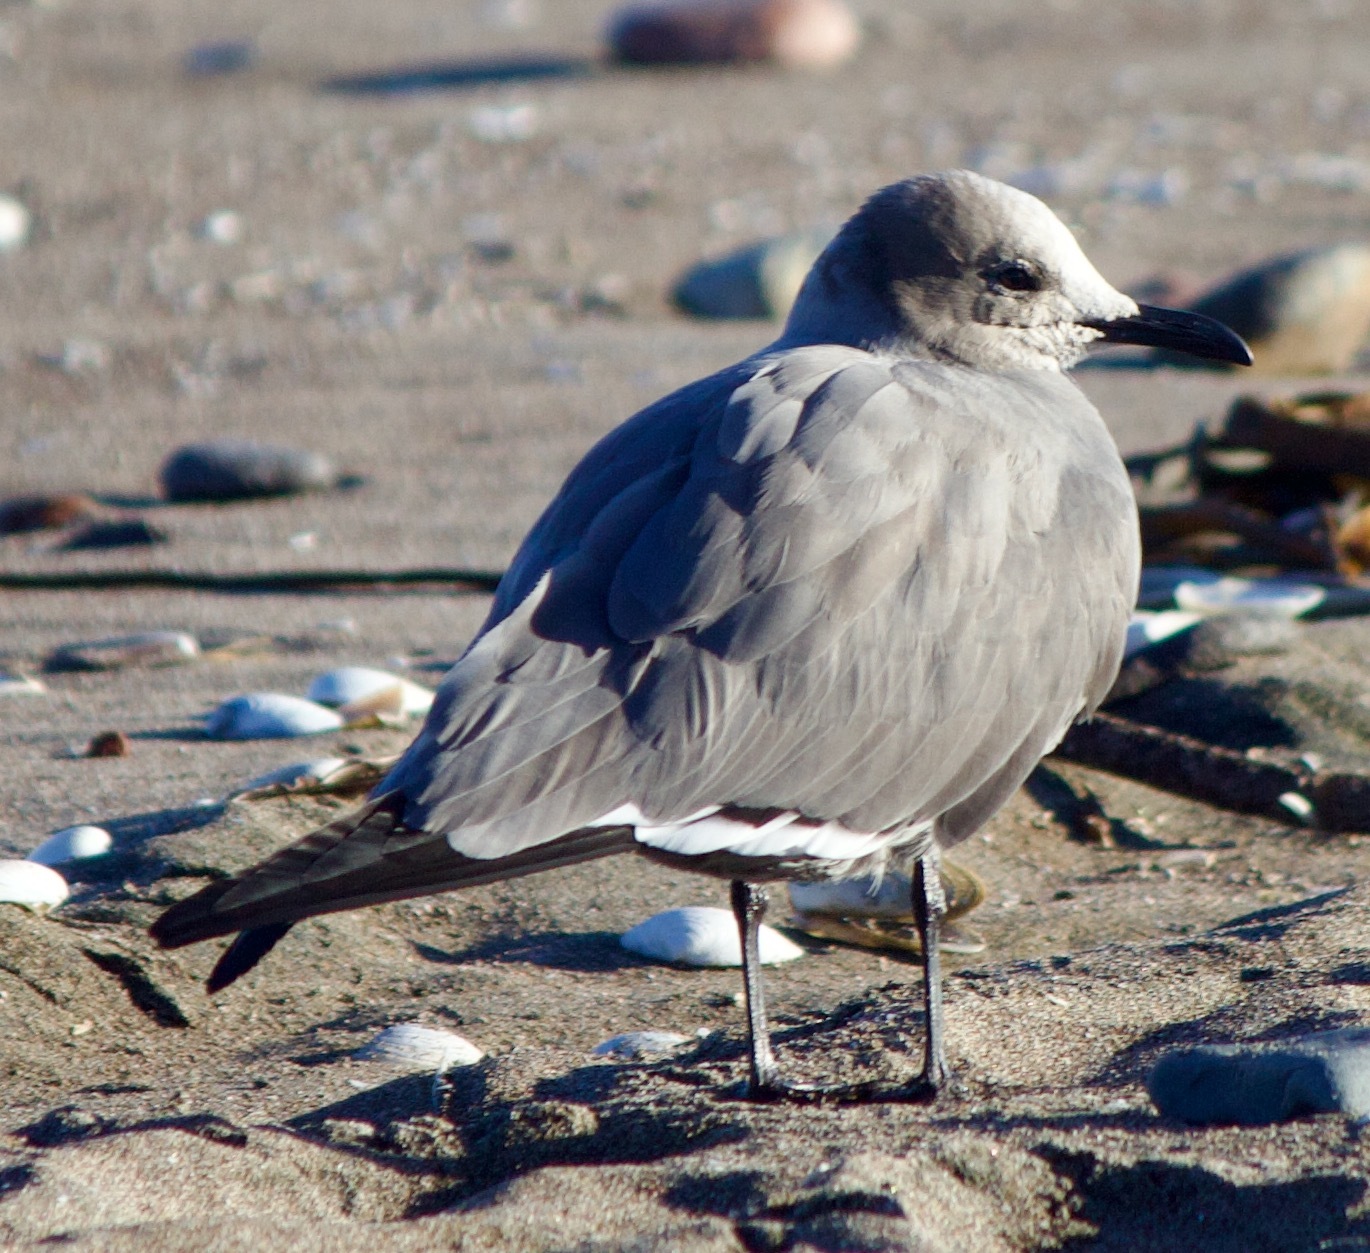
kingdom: Animalia
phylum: Chordata
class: Aves
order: Charadriiformes
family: Laridae
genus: Leucophaeus
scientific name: Leucophaeus modestus
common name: Gray gull
